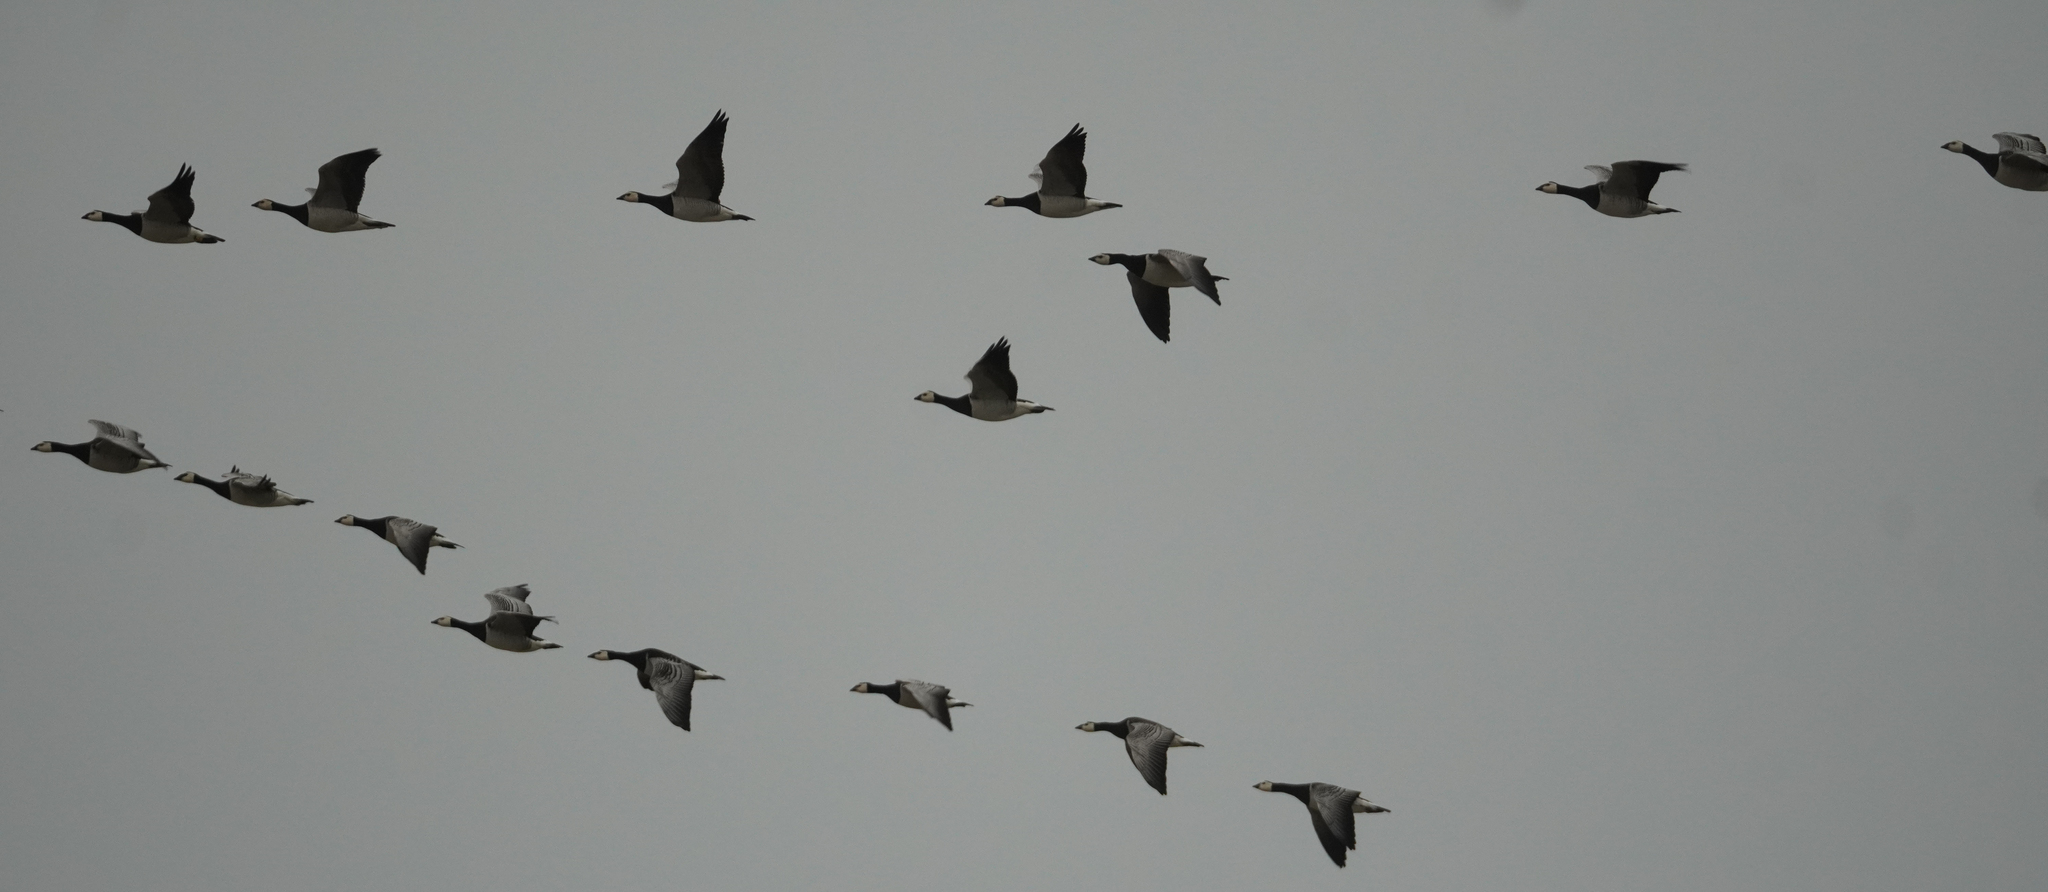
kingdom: Animalia
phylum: Chordata
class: Aves
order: Anseriformes
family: Anatidae
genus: Branta
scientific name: Branta leucopsis
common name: Barnacle goose
